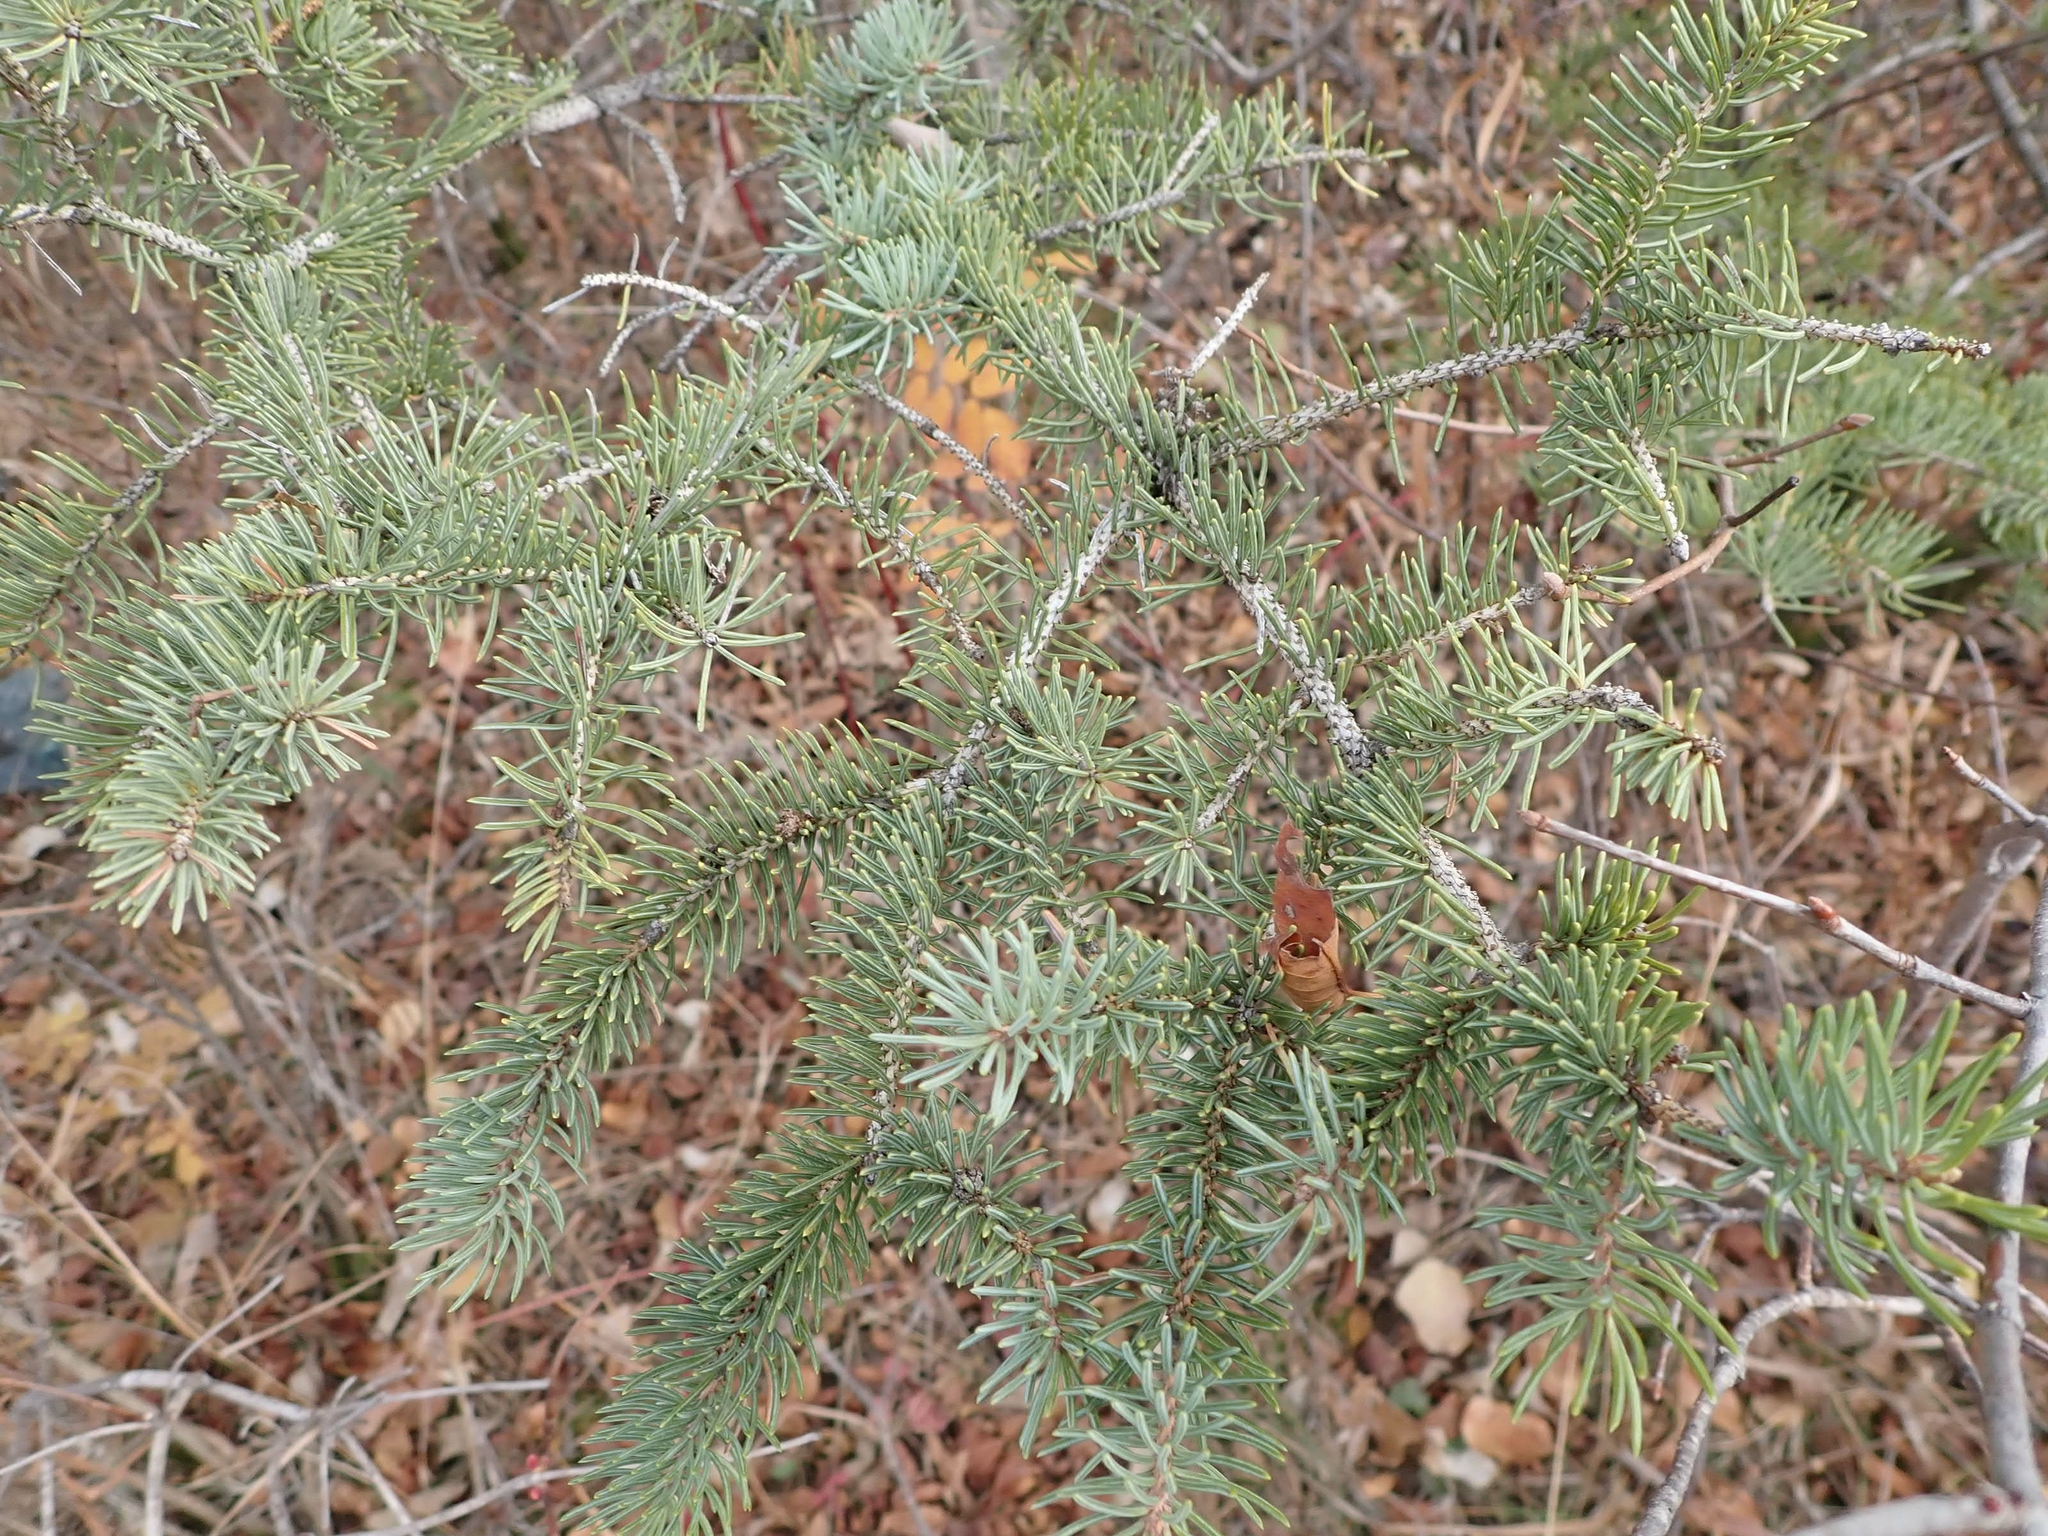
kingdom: Plantae
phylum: Tracheophyta
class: Pinopsida
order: Pinales
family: Pinaceae
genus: Picea
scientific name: Picea glauca
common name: White spruce
